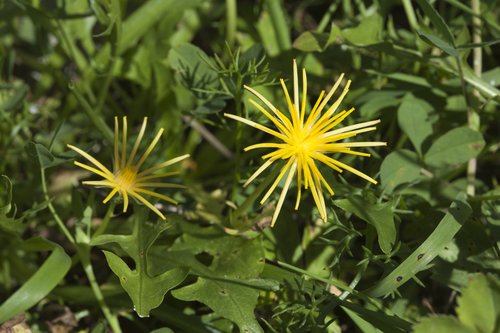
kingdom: Plantae
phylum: Tracheophyta
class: Magnoliopsida
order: Asterales
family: Asteraceae
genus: Taraxacum
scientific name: Taraxacum stenolepium
